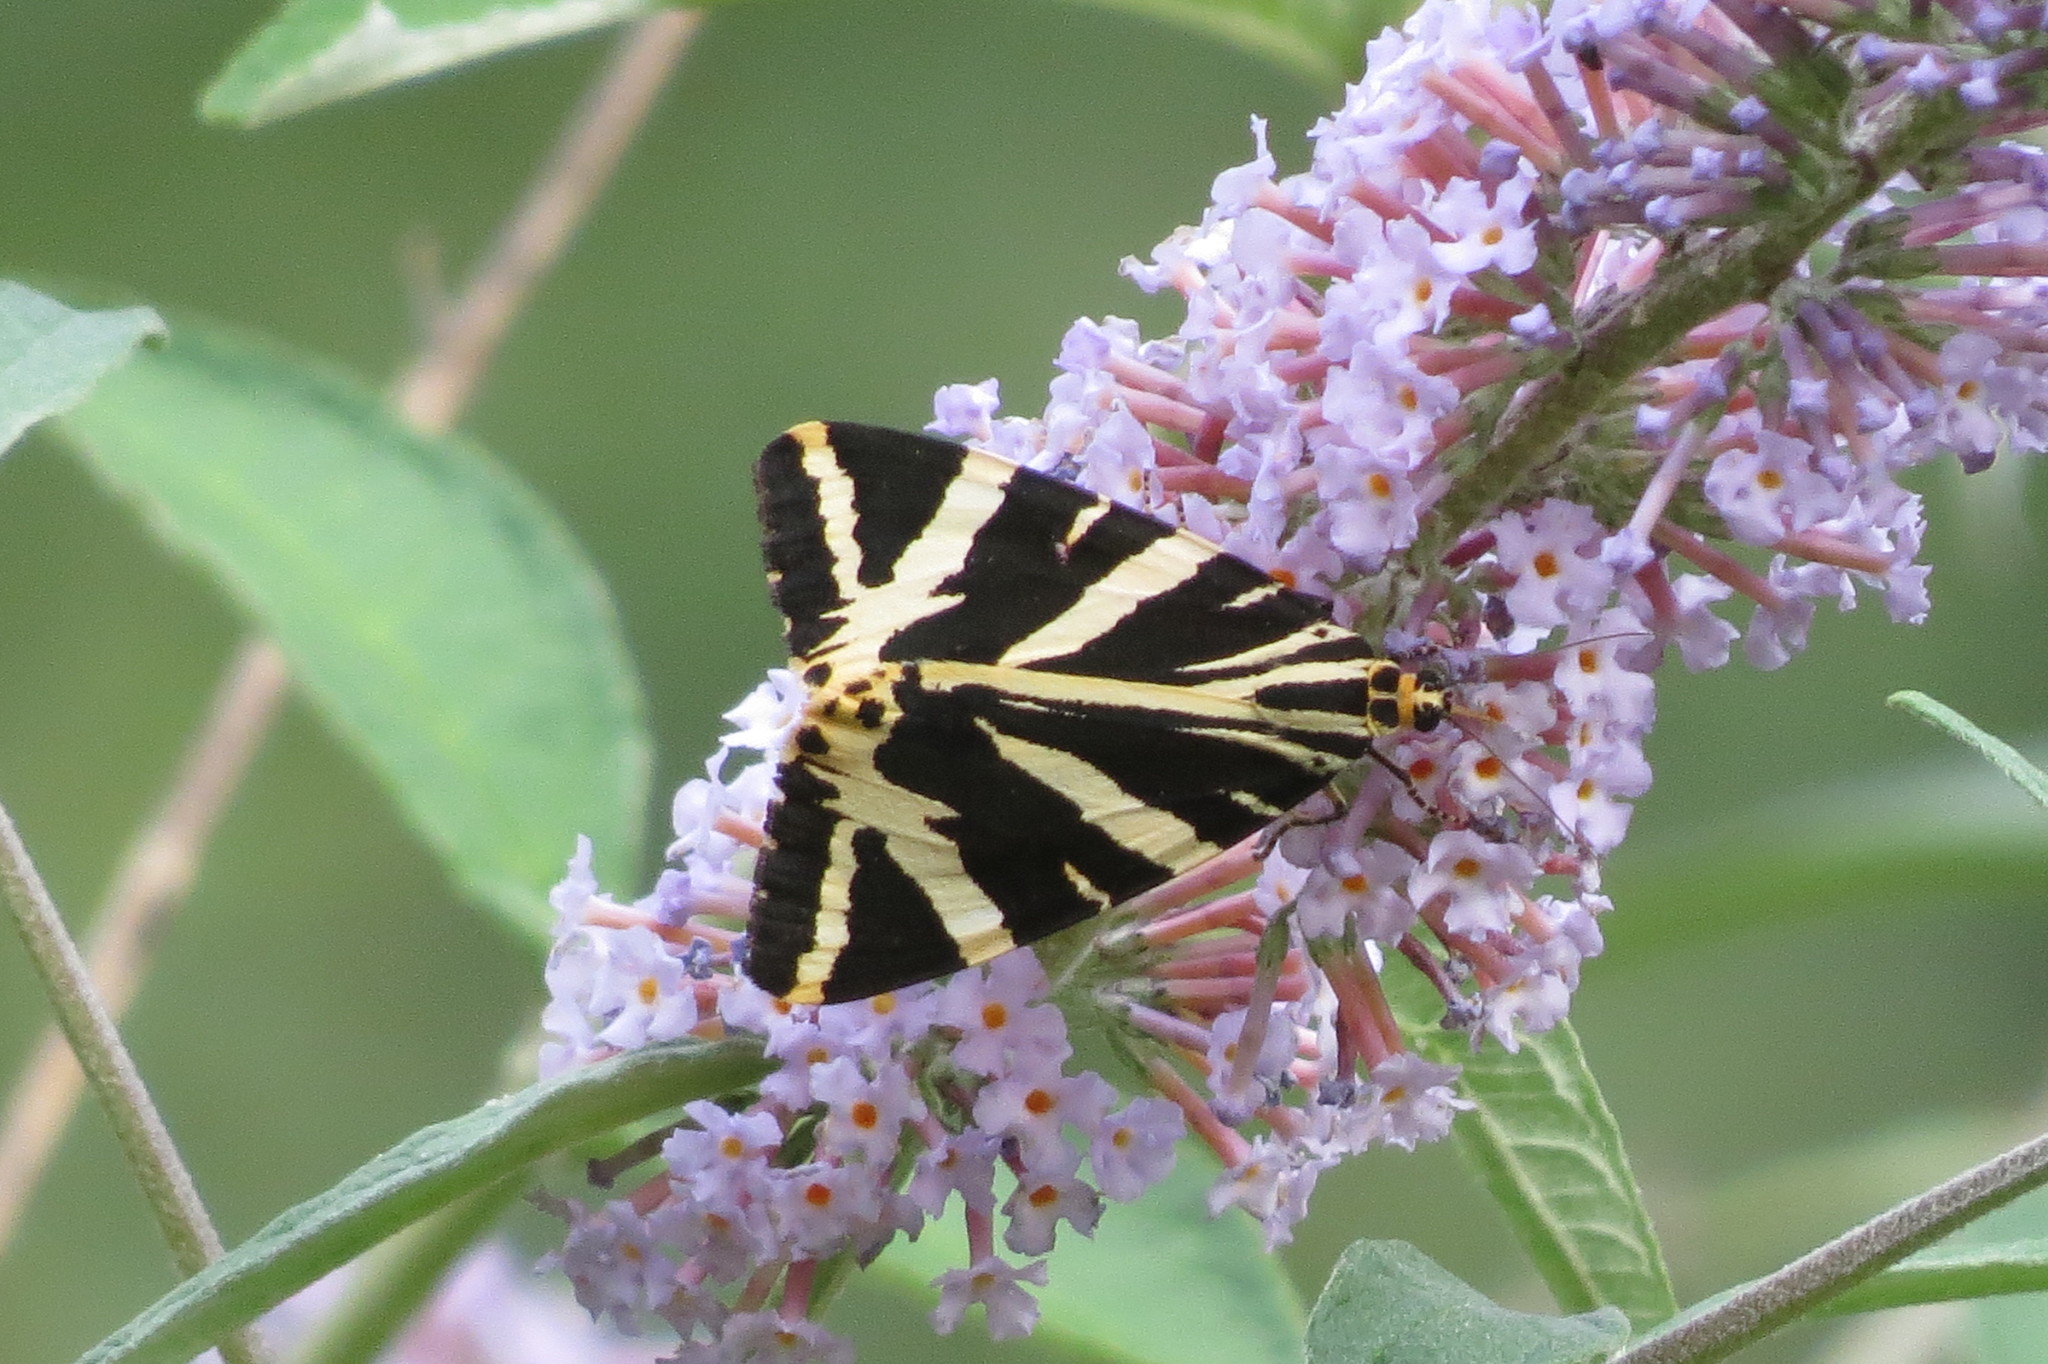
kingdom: Animalia
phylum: Arthropoda
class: Insecta
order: Lepidoptera
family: Erebidae
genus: Euplagia
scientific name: Euplagia quadripunctaria
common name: Jersey tiger
